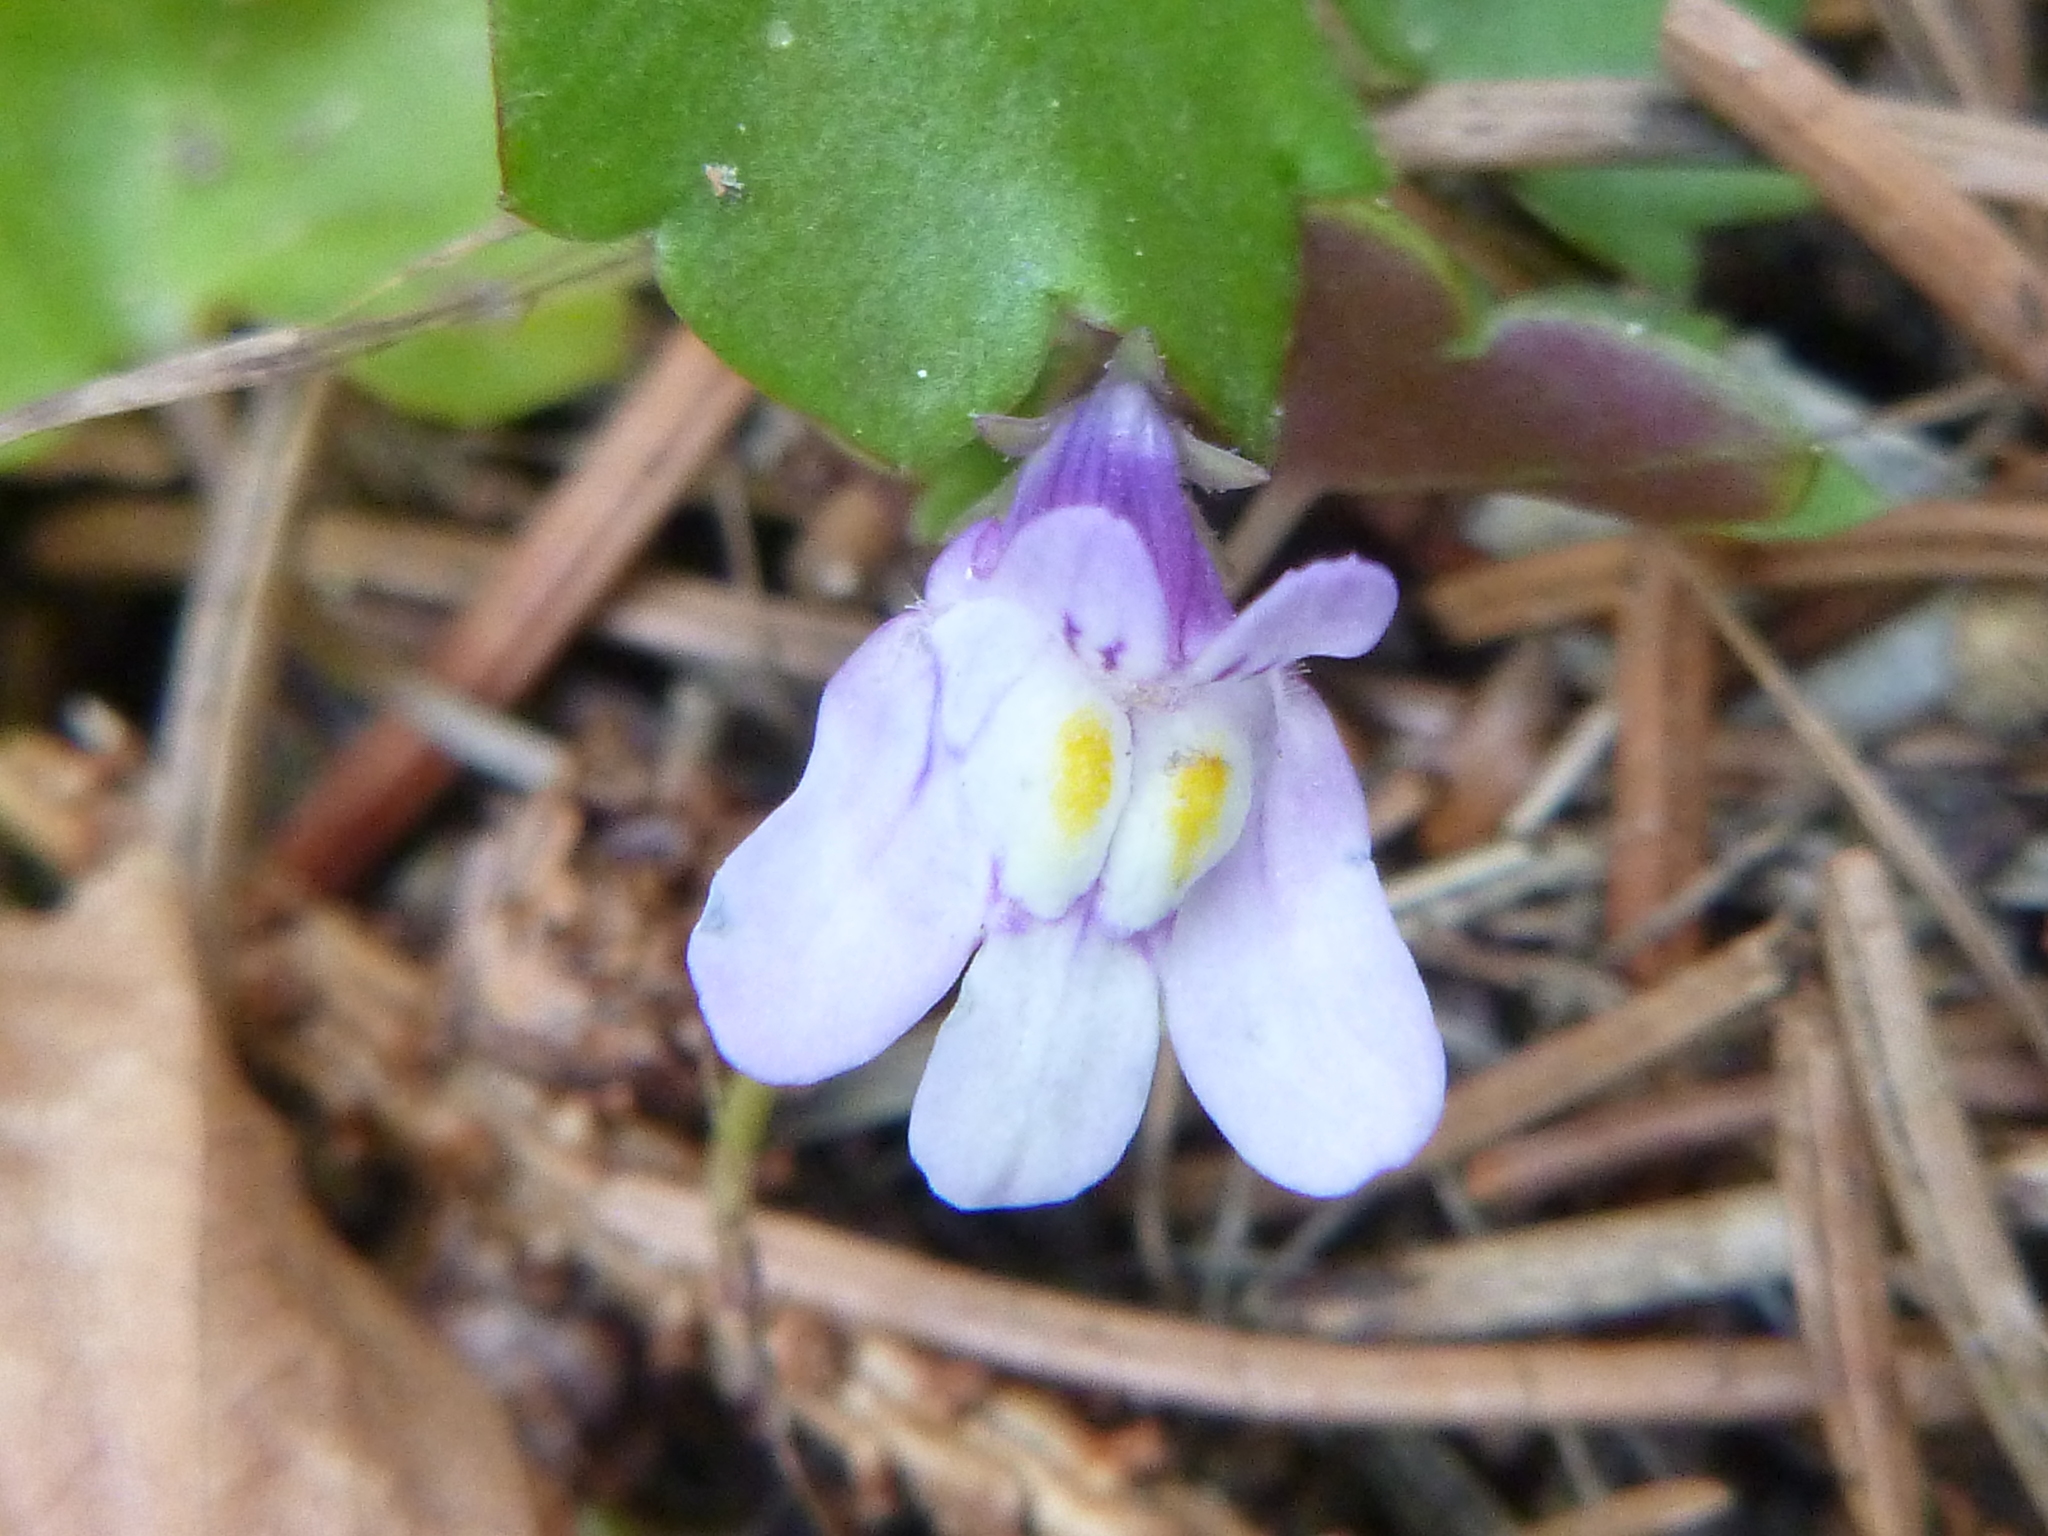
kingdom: Plantae
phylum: Tracheophyta
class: Magnoliopsida
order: Lamiales
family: Plantaginaceae
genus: Cymbalaria
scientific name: Cymbalaria muralis
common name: Ivy-leaved toadflax
